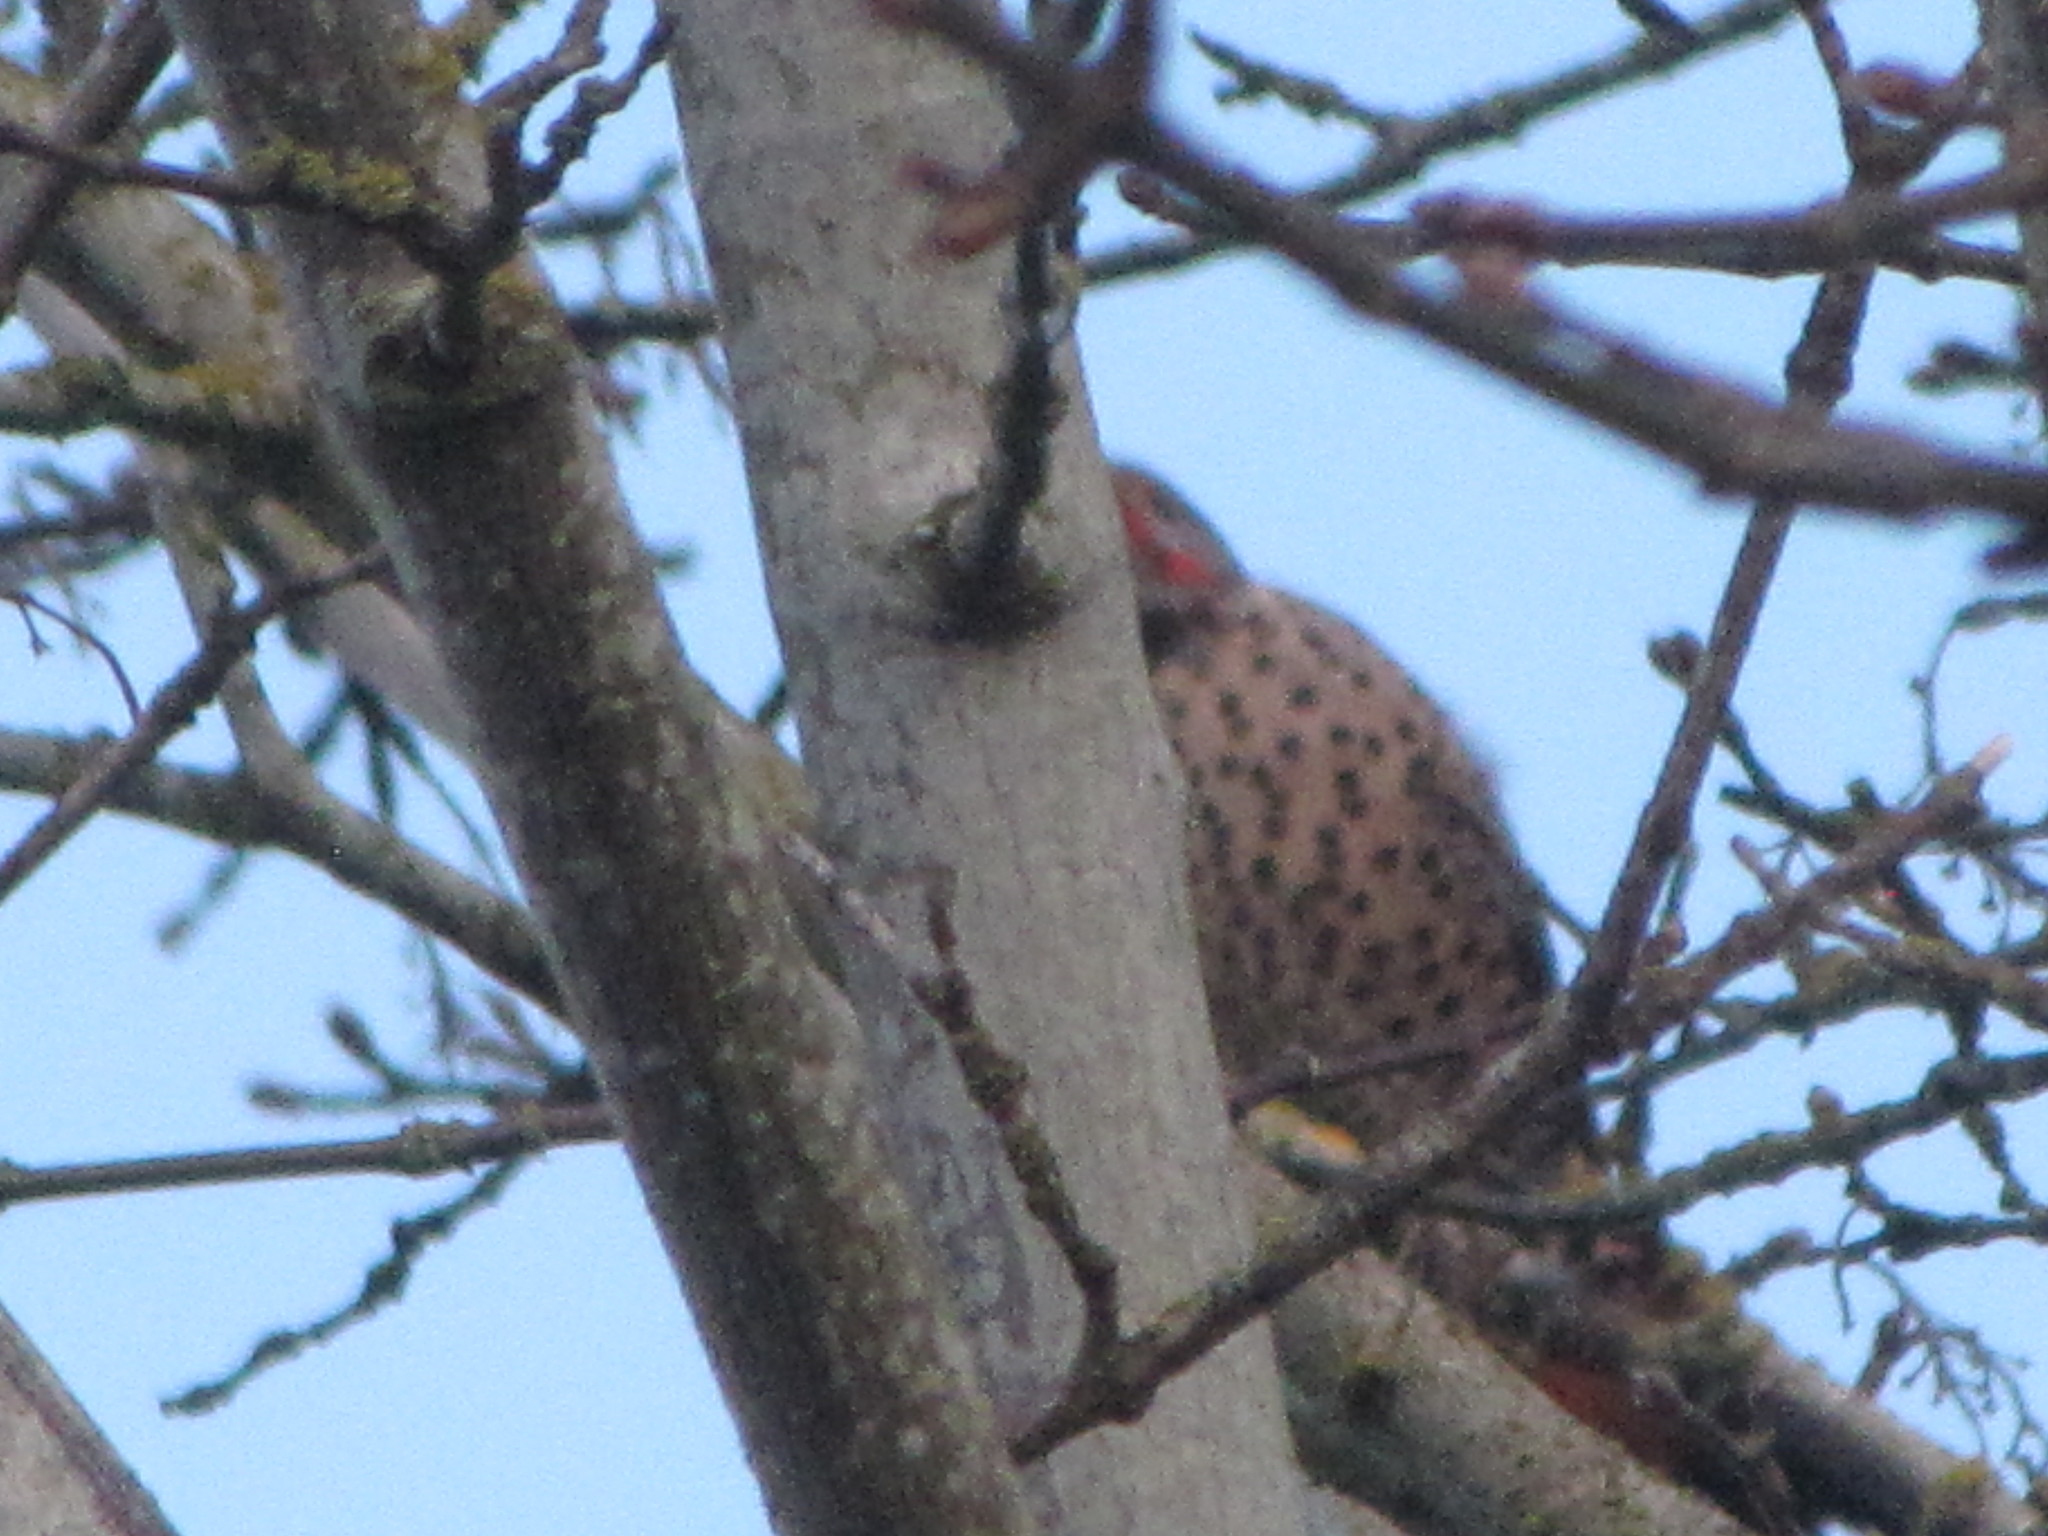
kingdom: Animalia
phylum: Chordata
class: Aves
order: Piciformes
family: Picidae
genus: Colaptes
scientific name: Colaptes auratus
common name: Northern flicker
